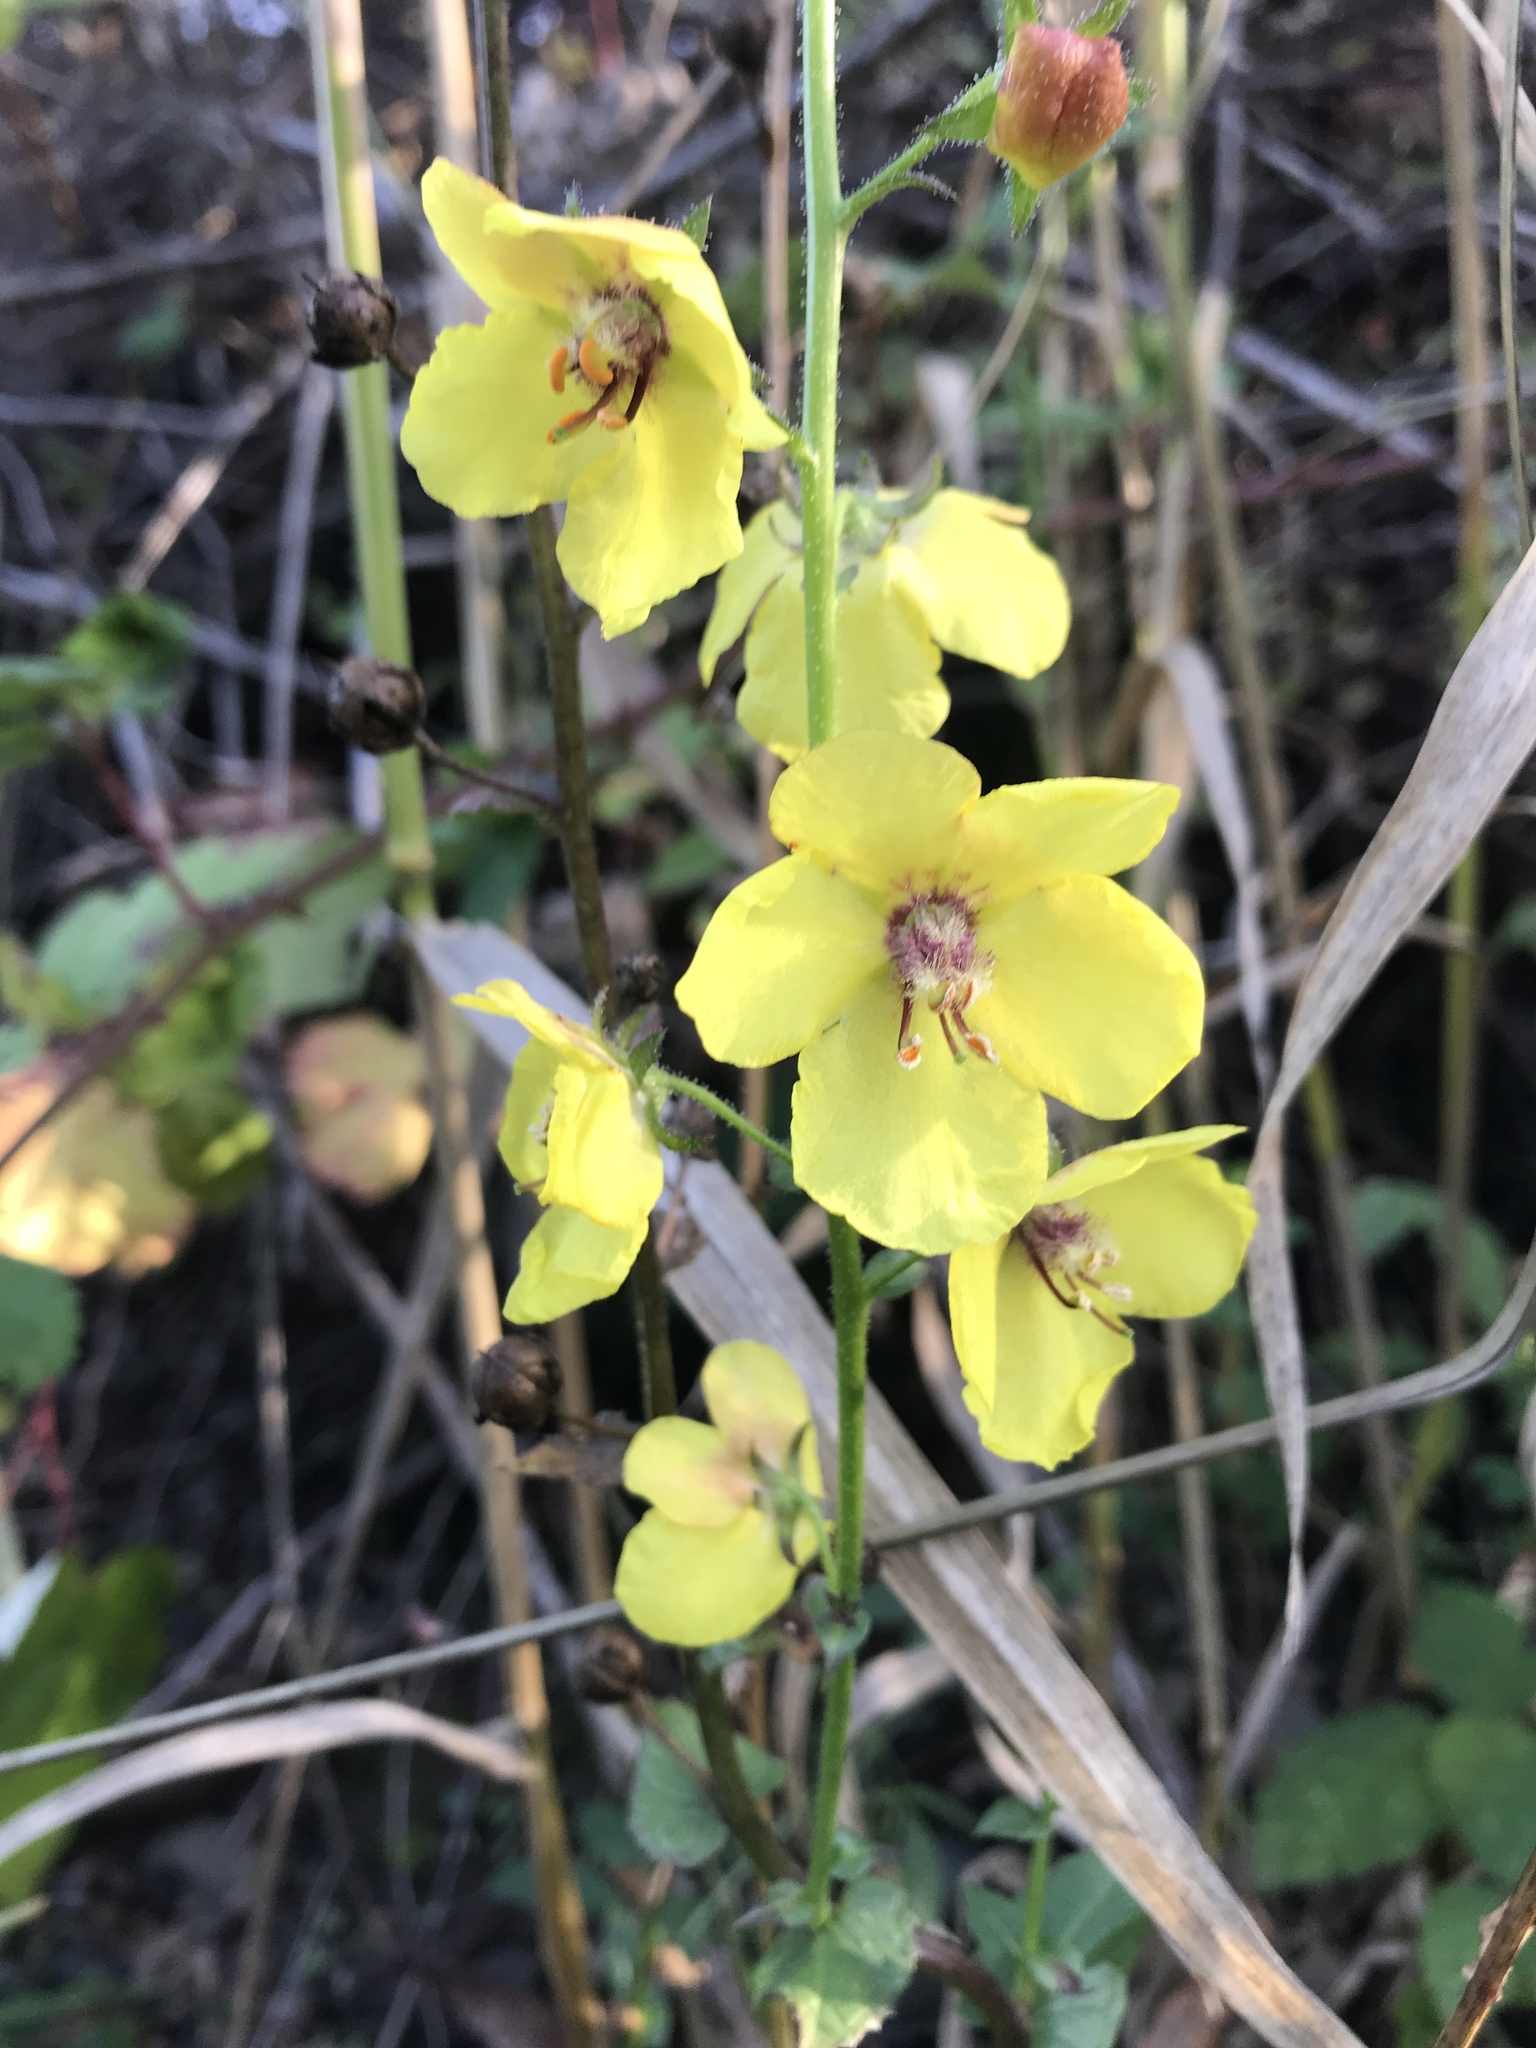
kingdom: Plantae
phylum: Tracheophyta
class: Magnoliopsida
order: Lamiales
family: Scrophulariaceae
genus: Verbascum
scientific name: Verbascum blattaria
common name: Moth mullein
